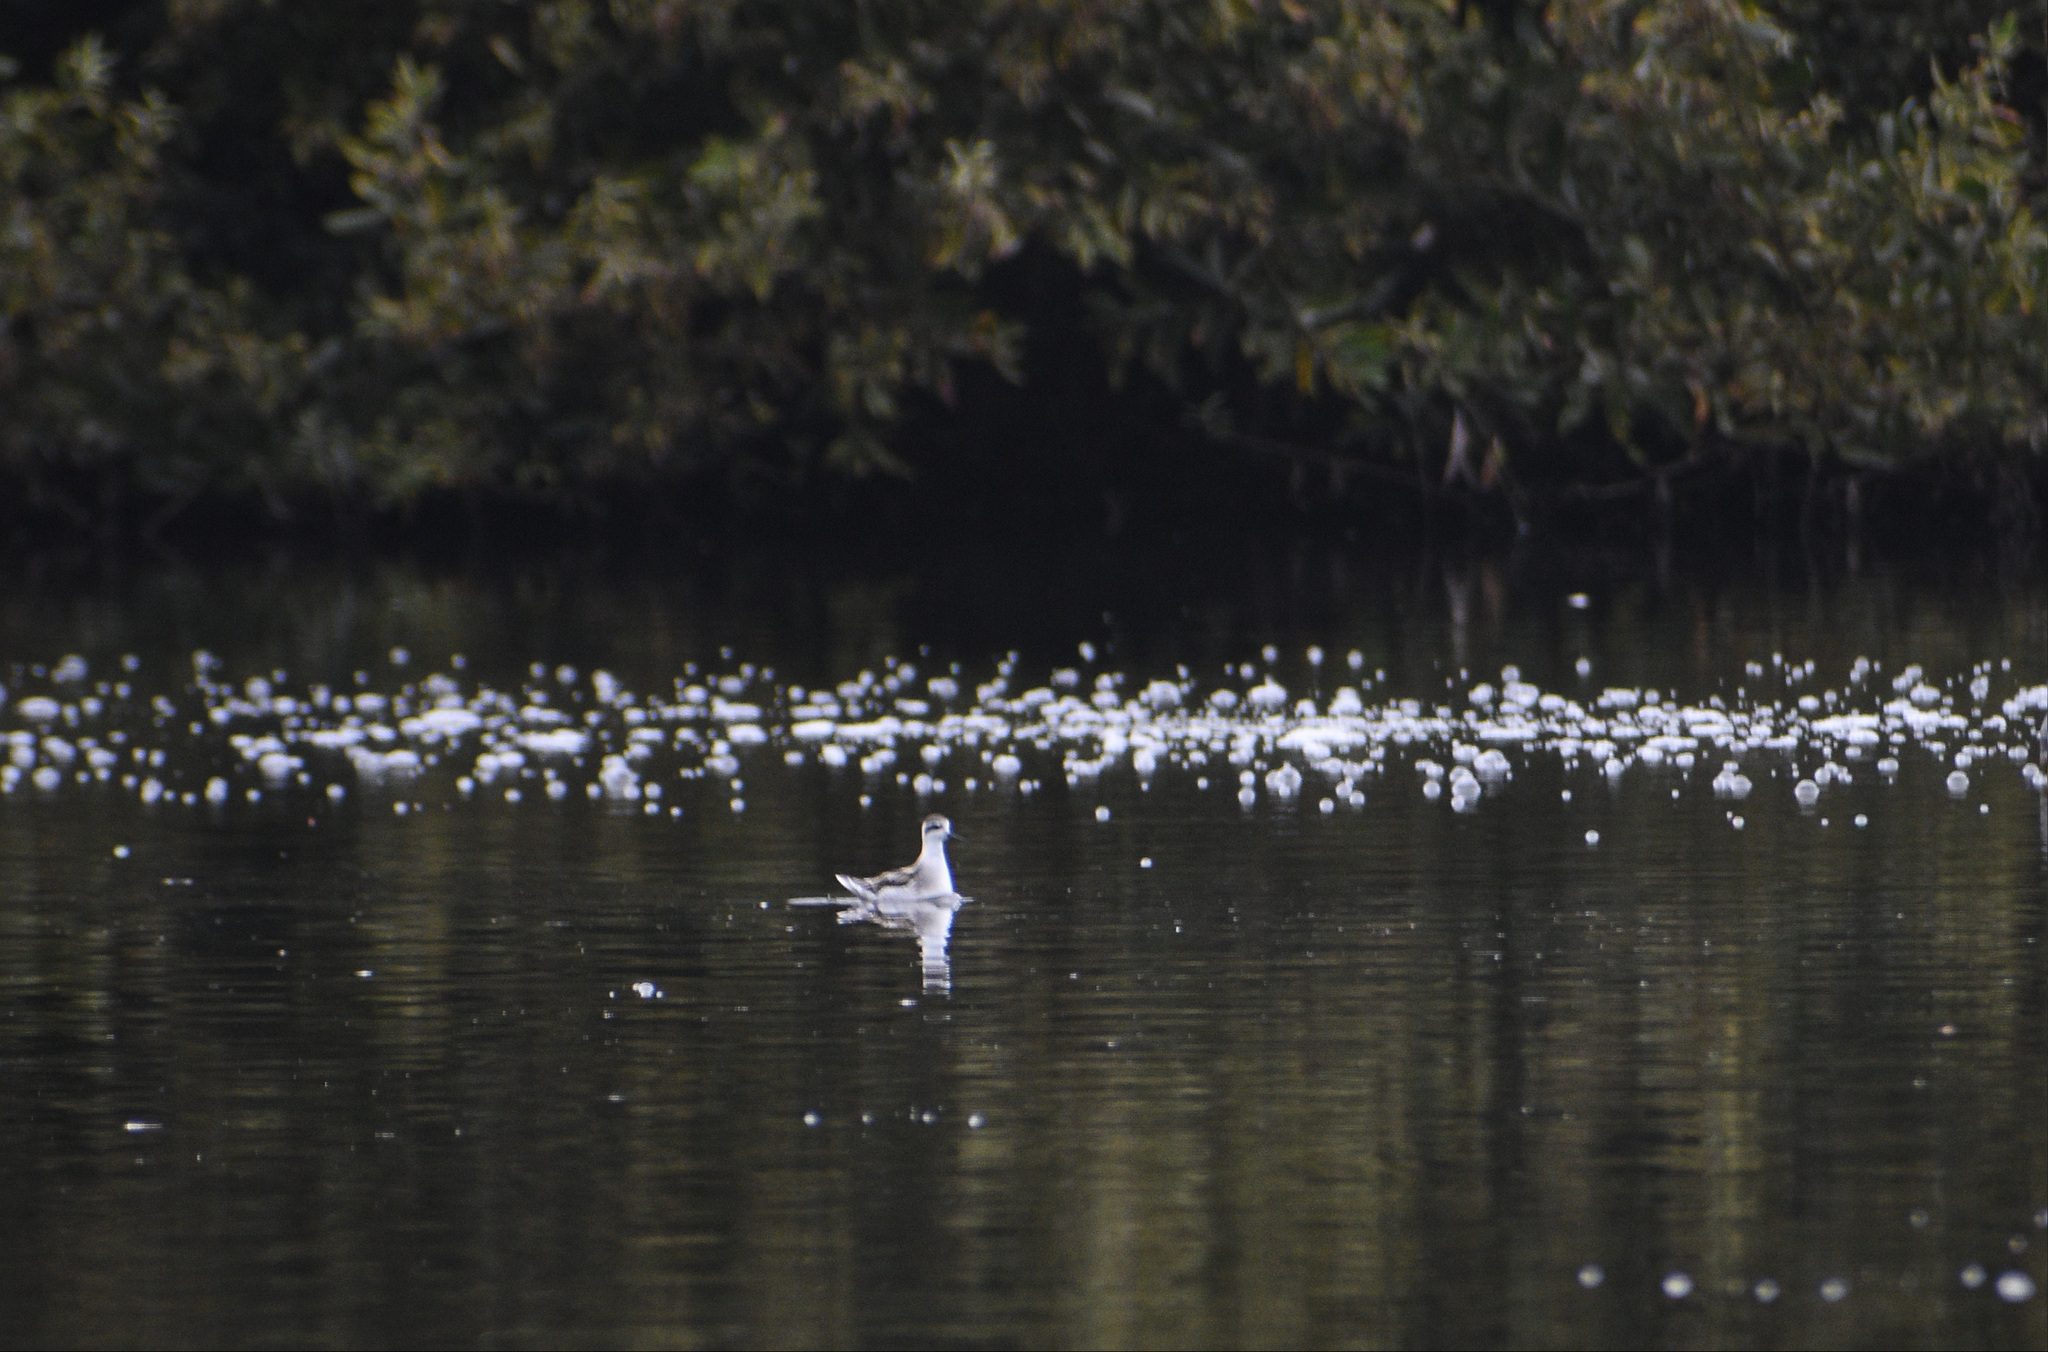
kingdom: Animalia
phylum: Chordata
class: Aves
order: Charadriiformes
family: Scolopacidae
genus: Phalaropus
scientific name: Phalaropus lobatus
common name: Red-necked phalarope
